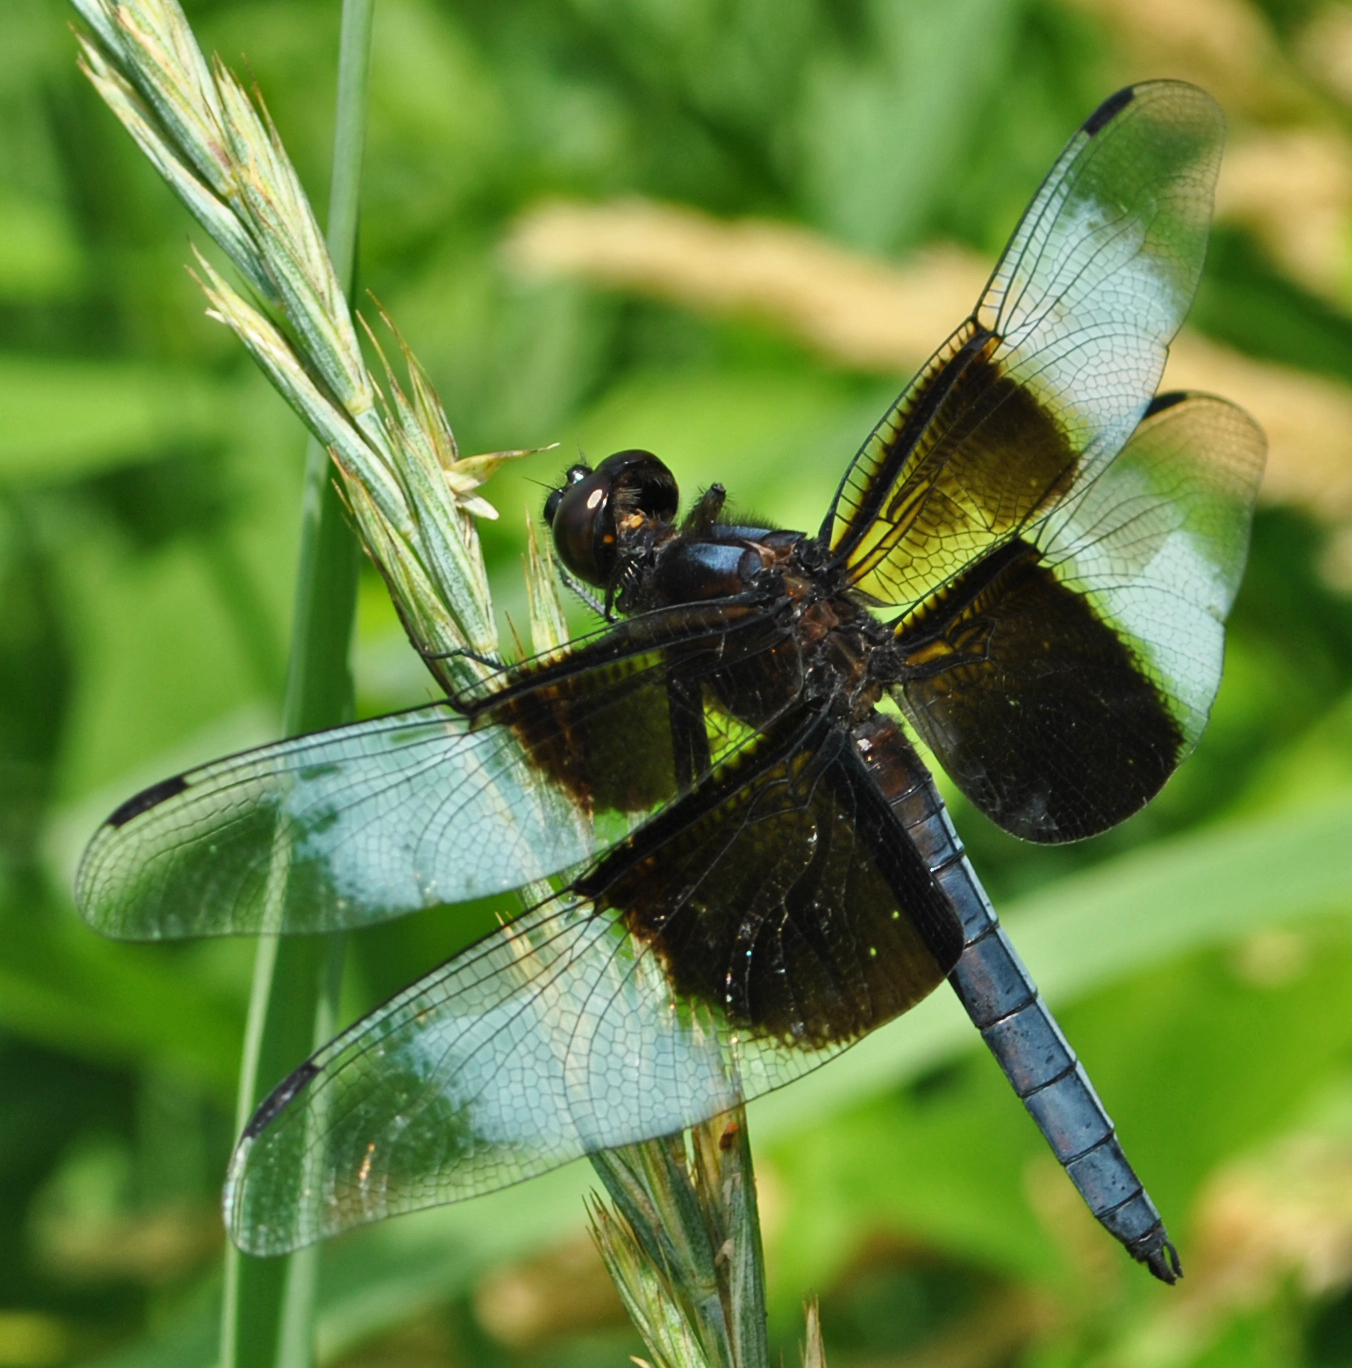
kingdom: Animalia
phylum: Arthropoda
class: Insecta
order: Odonata
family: Libellulidae
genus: Libellula
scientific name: Libellula luctuosa
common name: Widow skimmer
